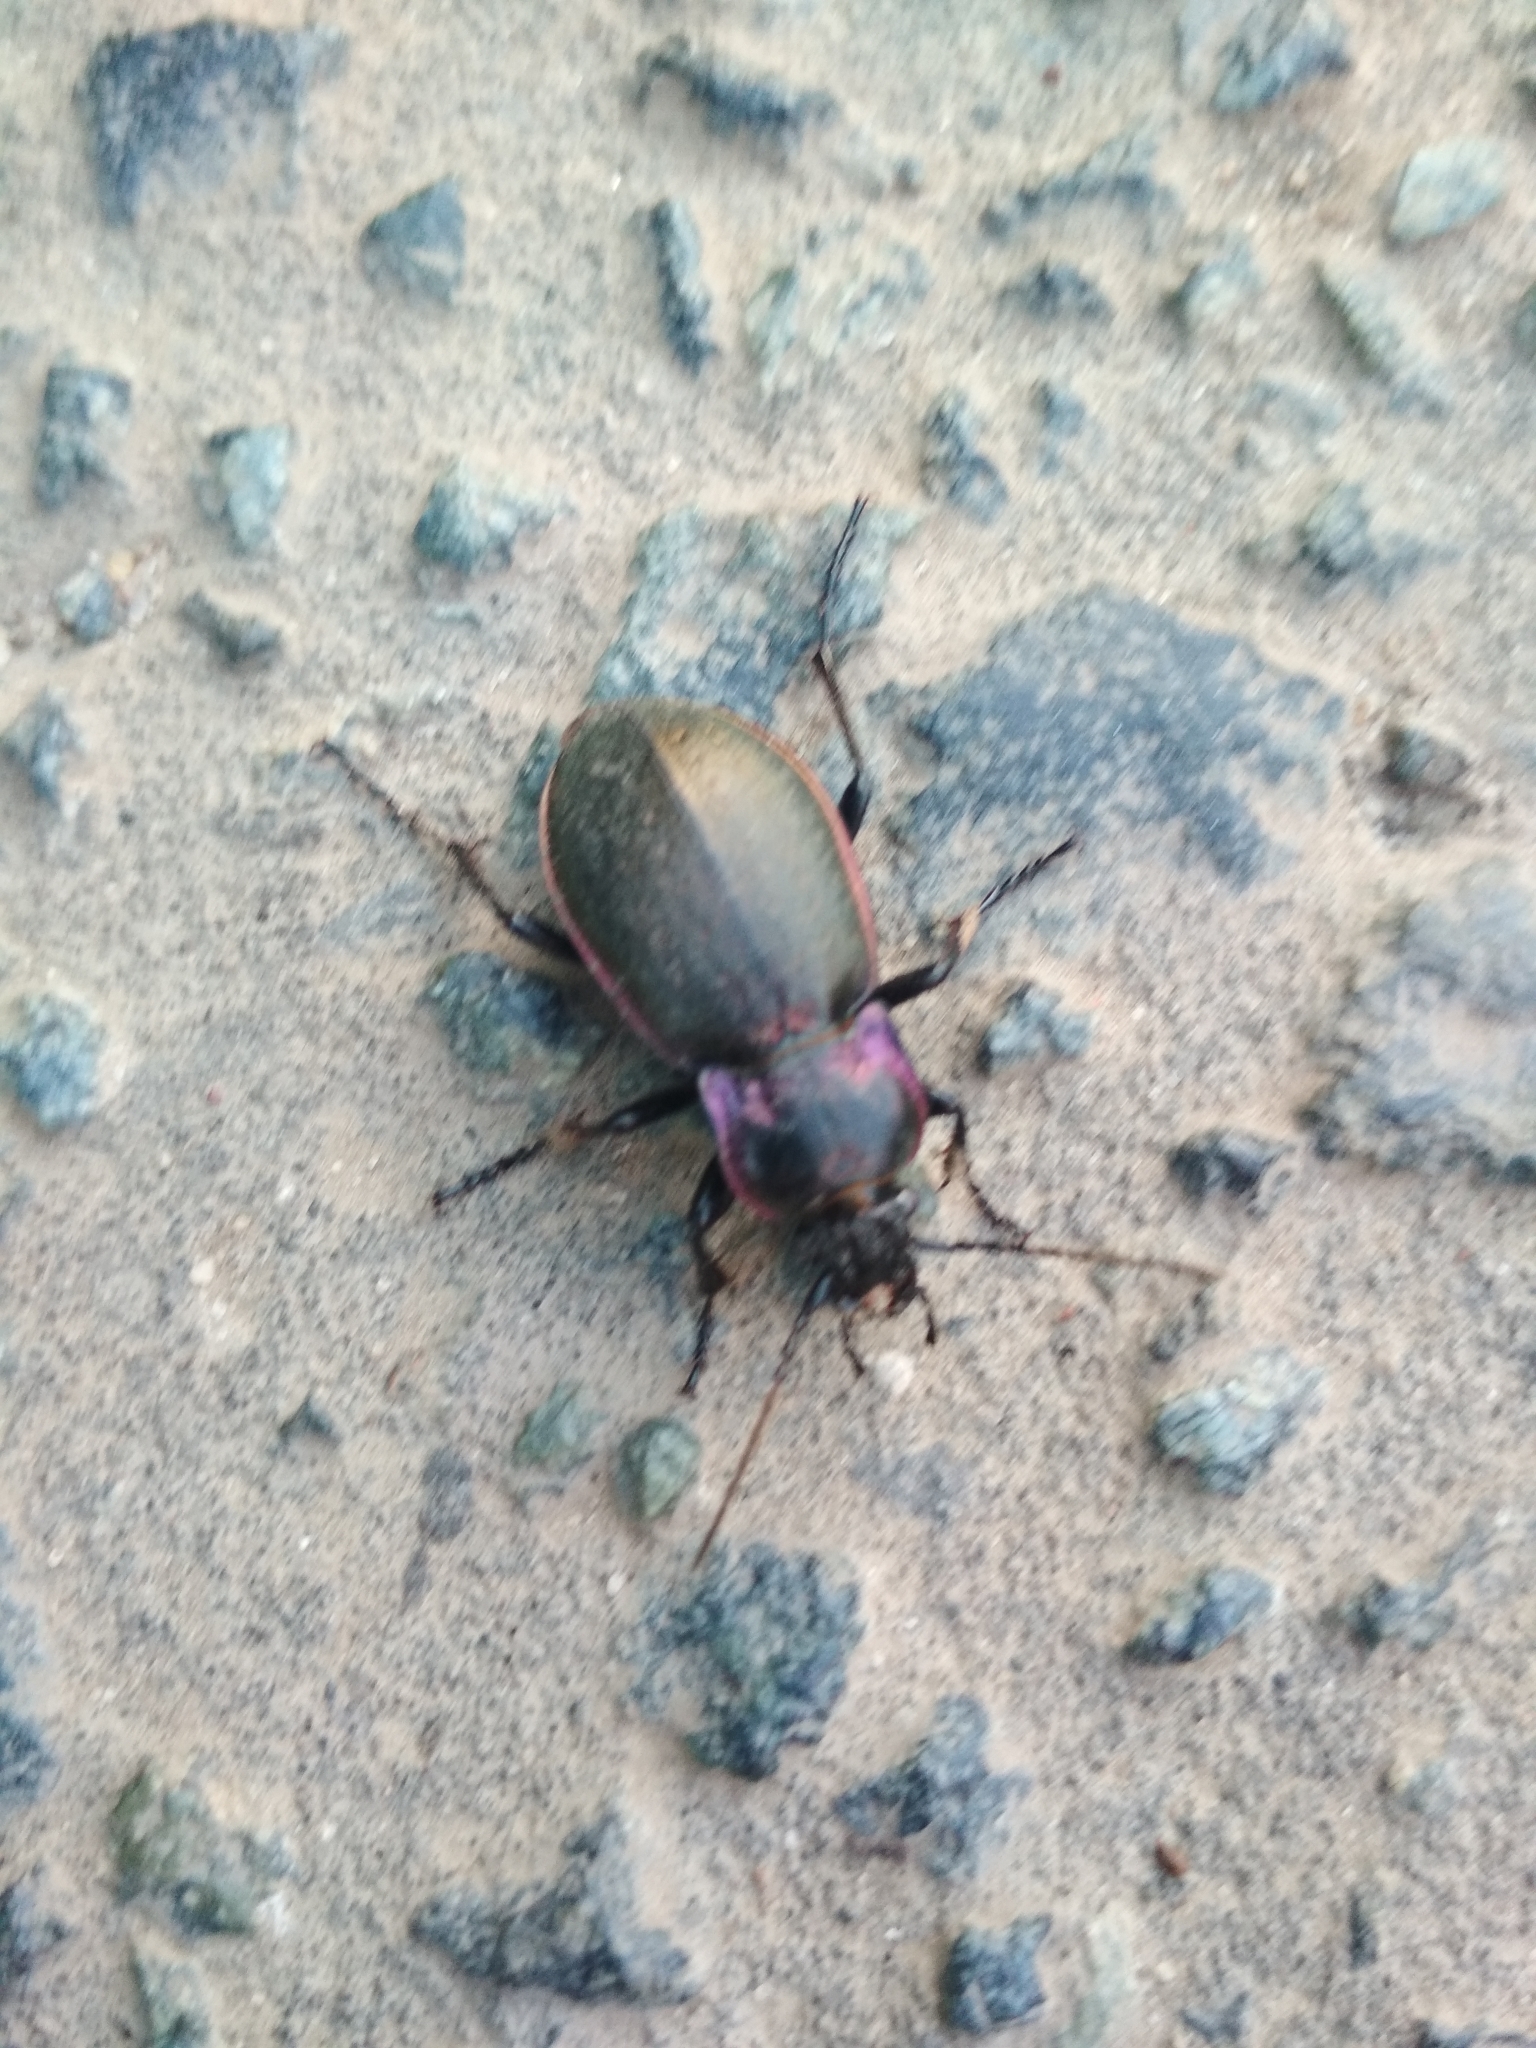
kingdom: Animalia
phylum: Arthropoda
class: Insecta
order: Coleoptera
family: Carabidae
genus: Carabus
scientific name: Carabus nemoralis
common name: European ground beetle
